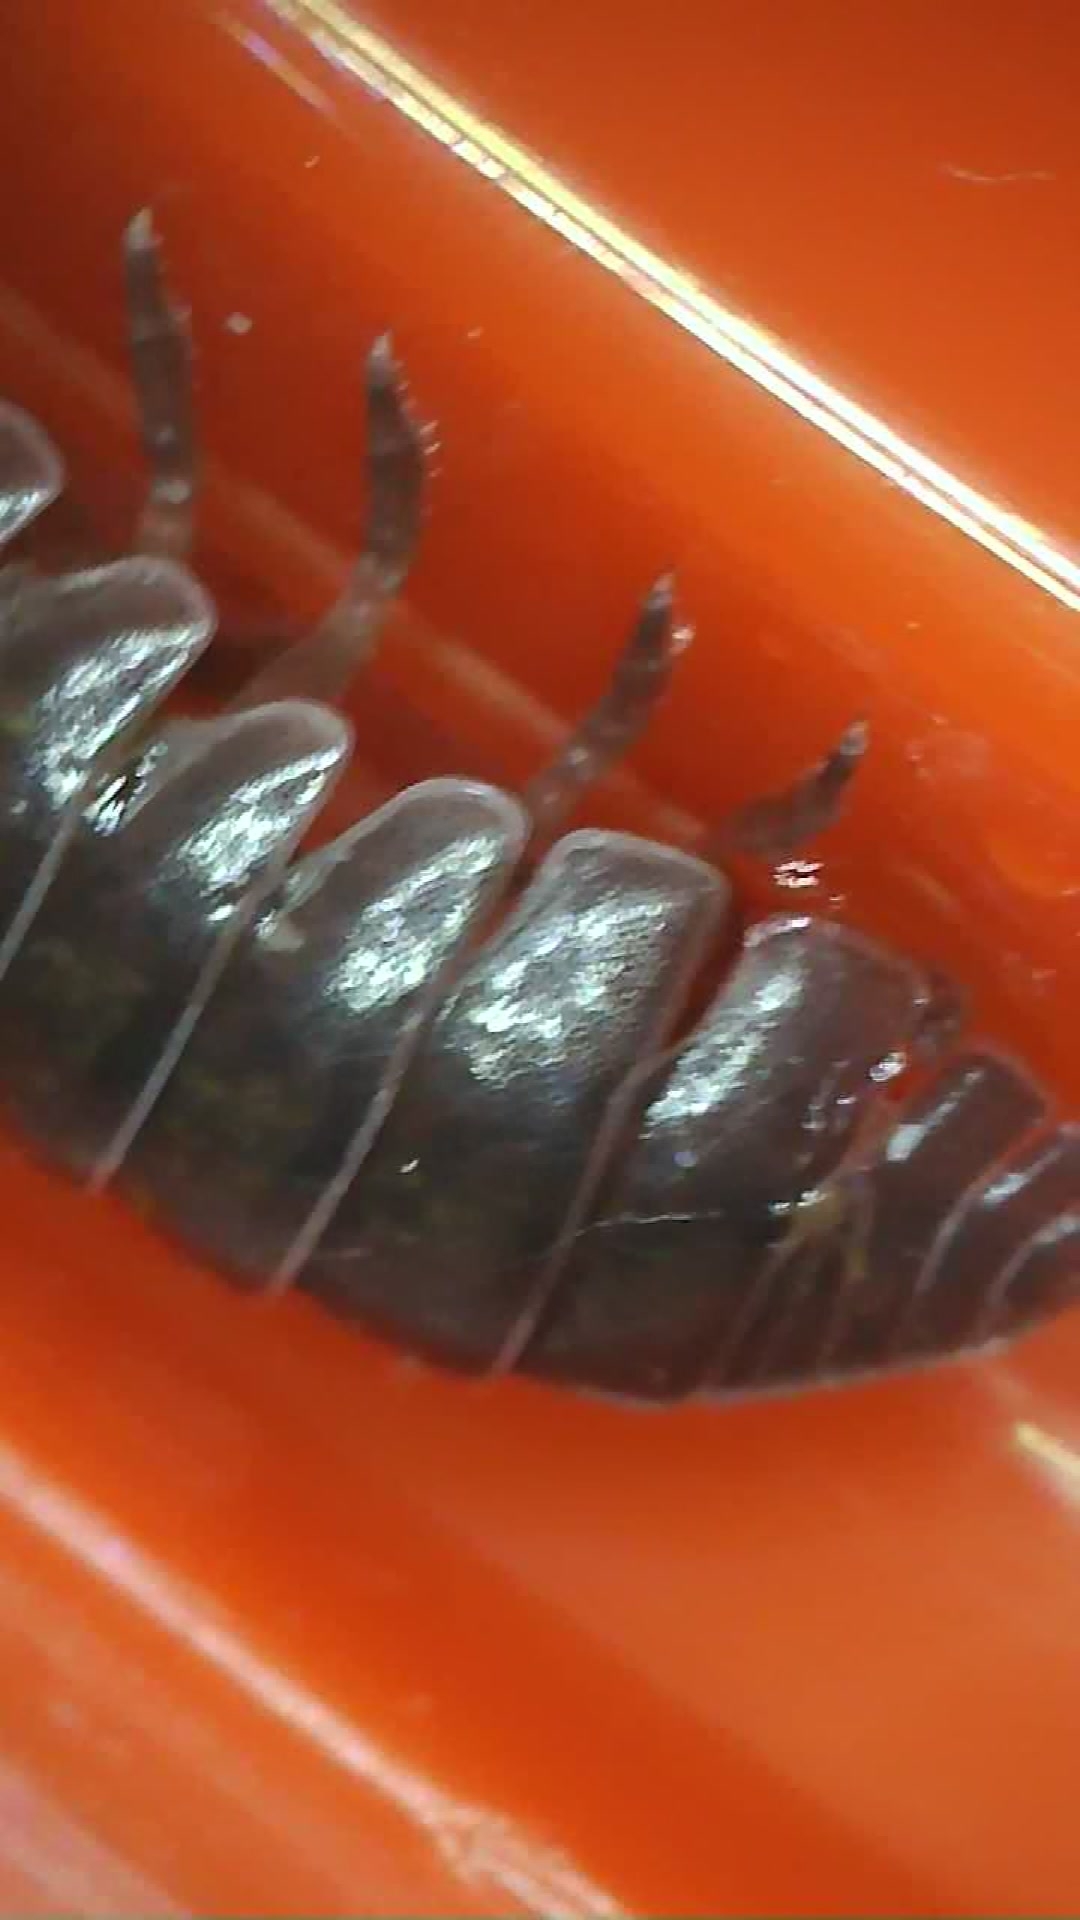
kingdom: Animalia
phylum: Arthropoda
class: Malacostraca
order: Isopoda
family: Armadillidiidae
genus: Armadillidium
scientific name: Armadillidium vulgare
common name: Common pill woodlouse
